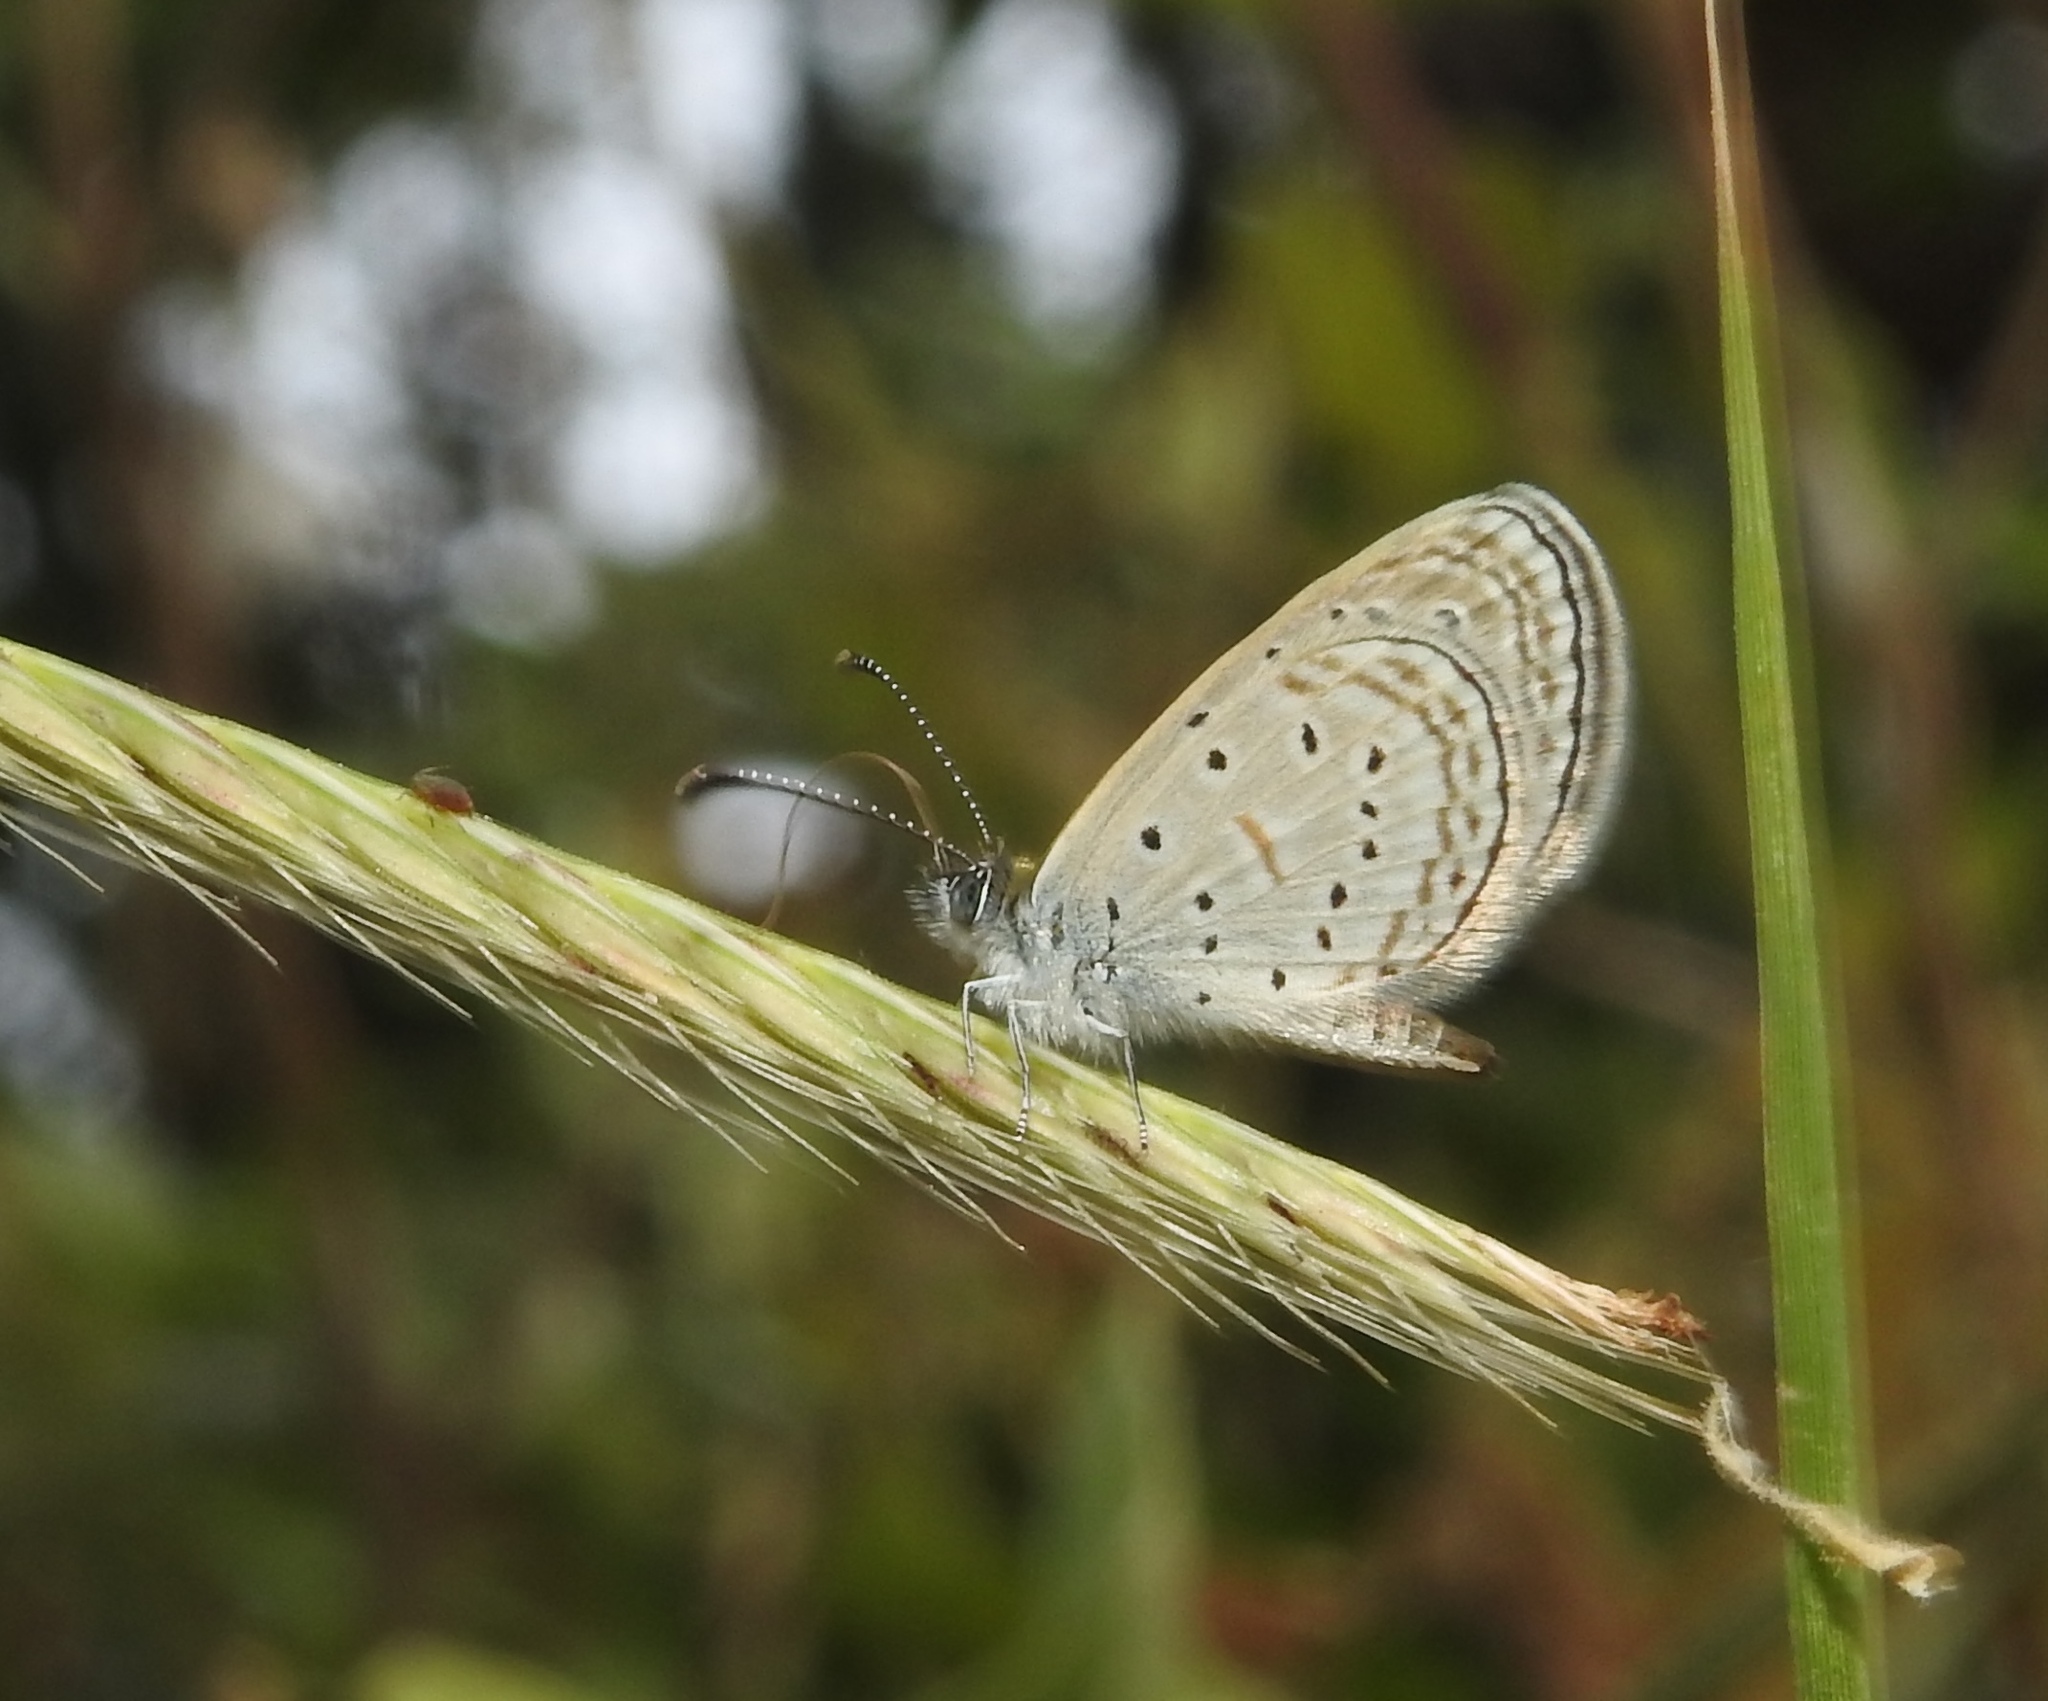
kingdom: Animalia
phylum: Arthropoda
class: Insecta
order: Lepidoptera
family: Lycaenidae
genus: Zizula
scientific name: Zizula hylax
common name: Gaika blue
